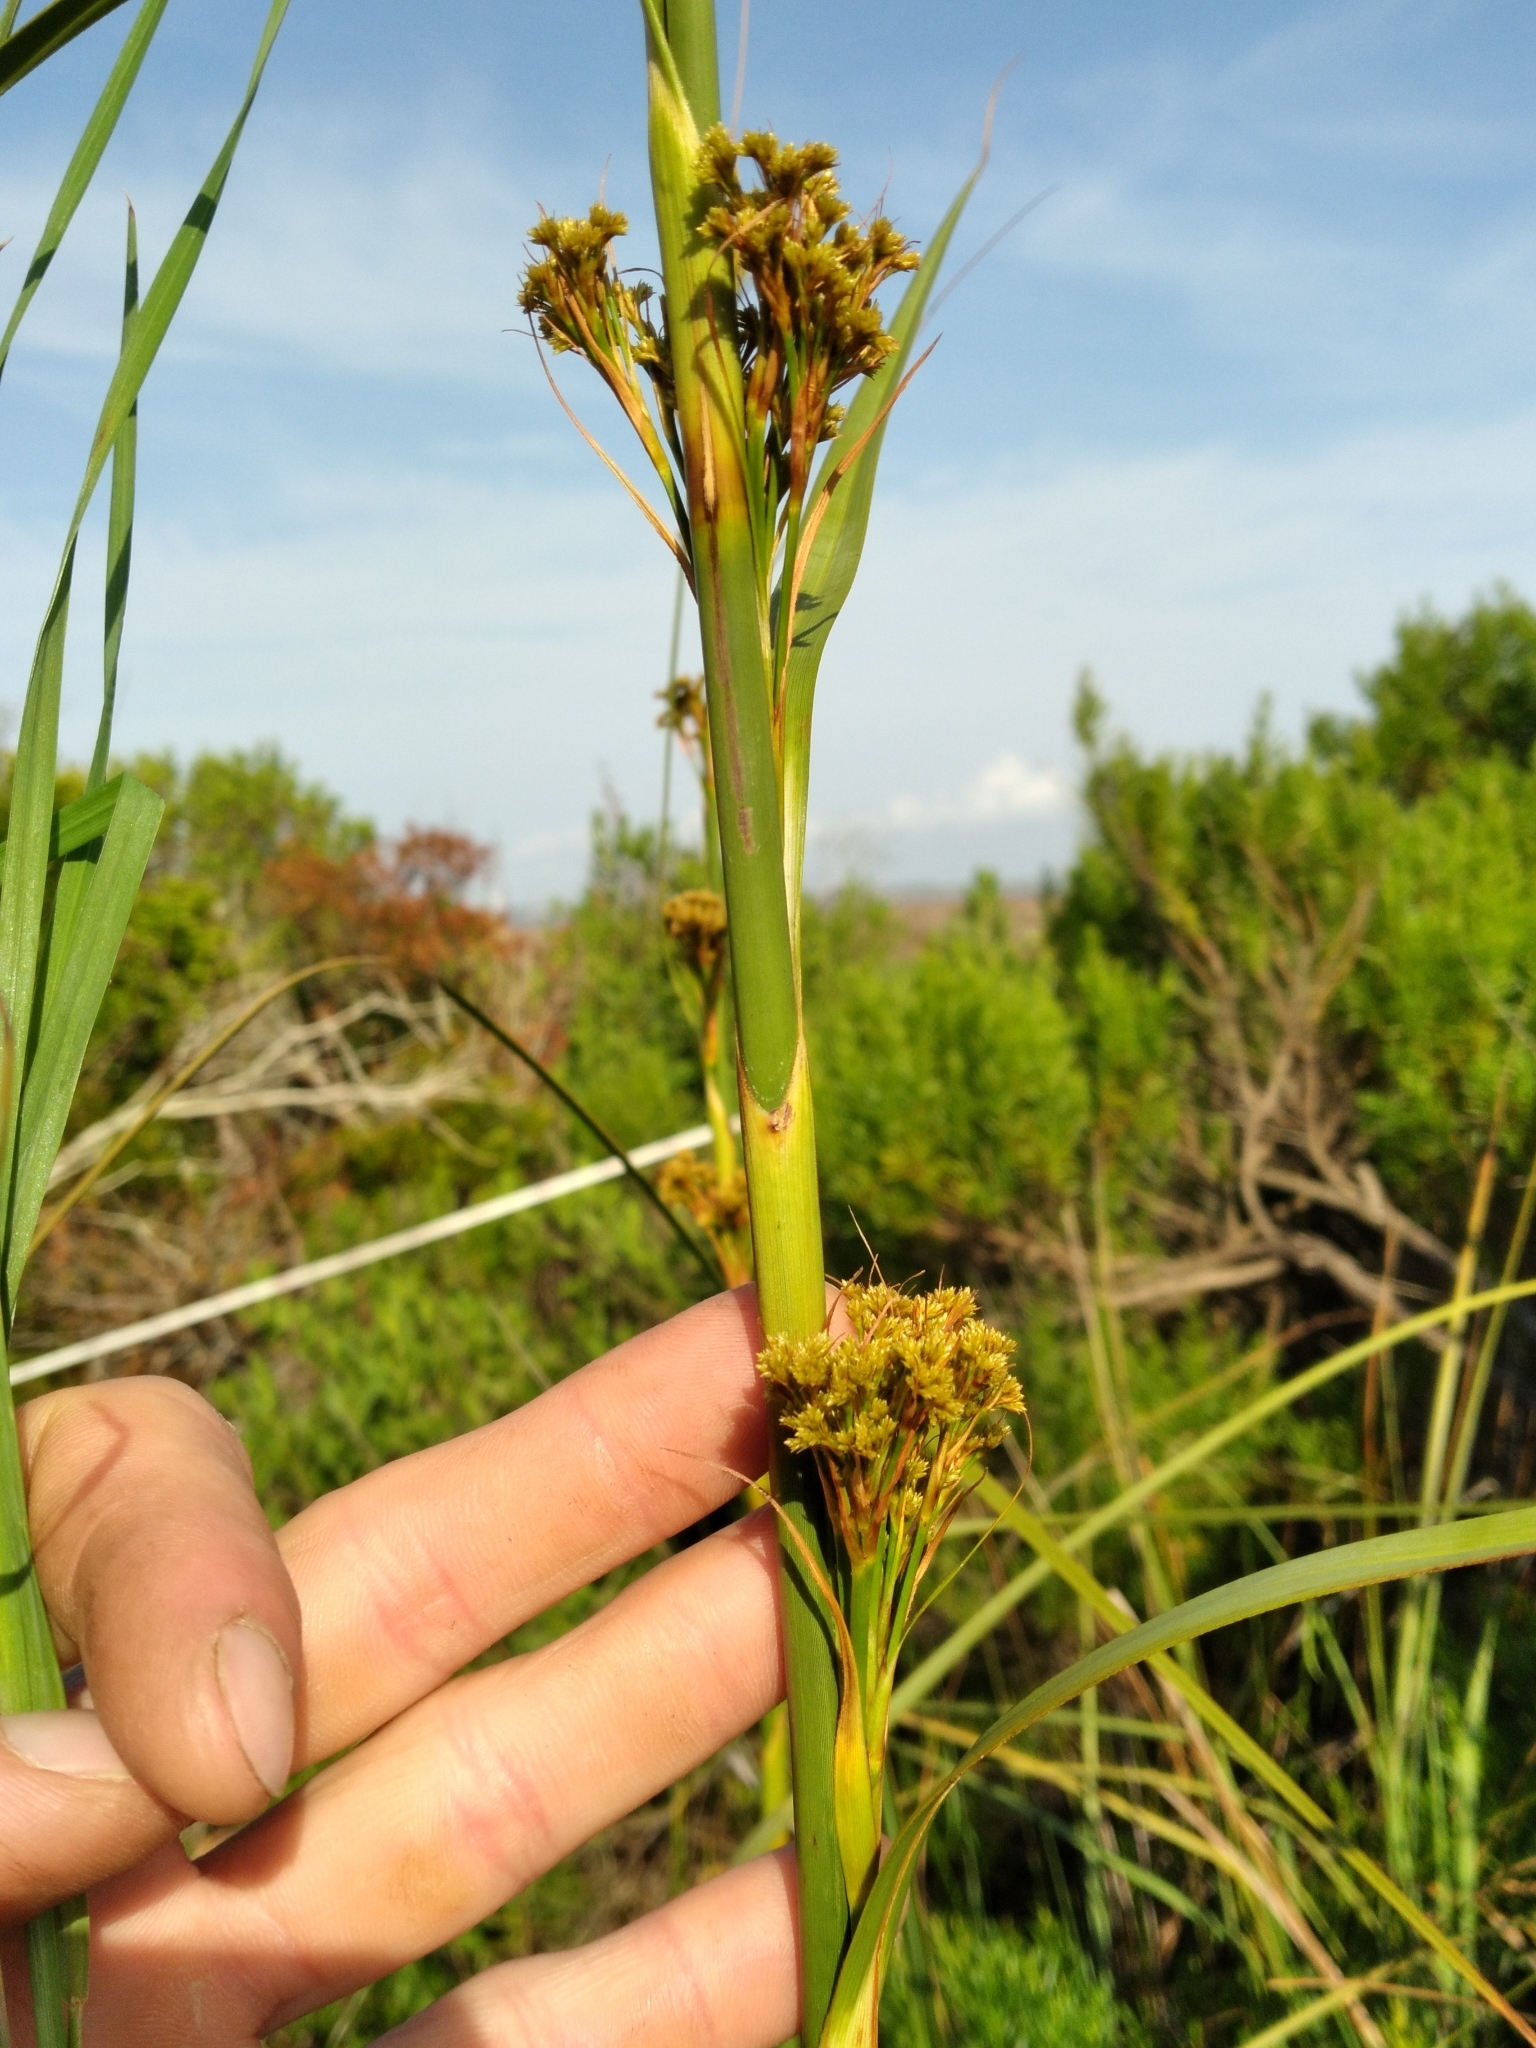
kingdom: Plantae
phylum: Tracheophyta
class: Liliopsida
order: Poales
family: Cyperaceae
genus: Cladium
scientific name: Cladium mariscus
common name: Great fen-sedge
